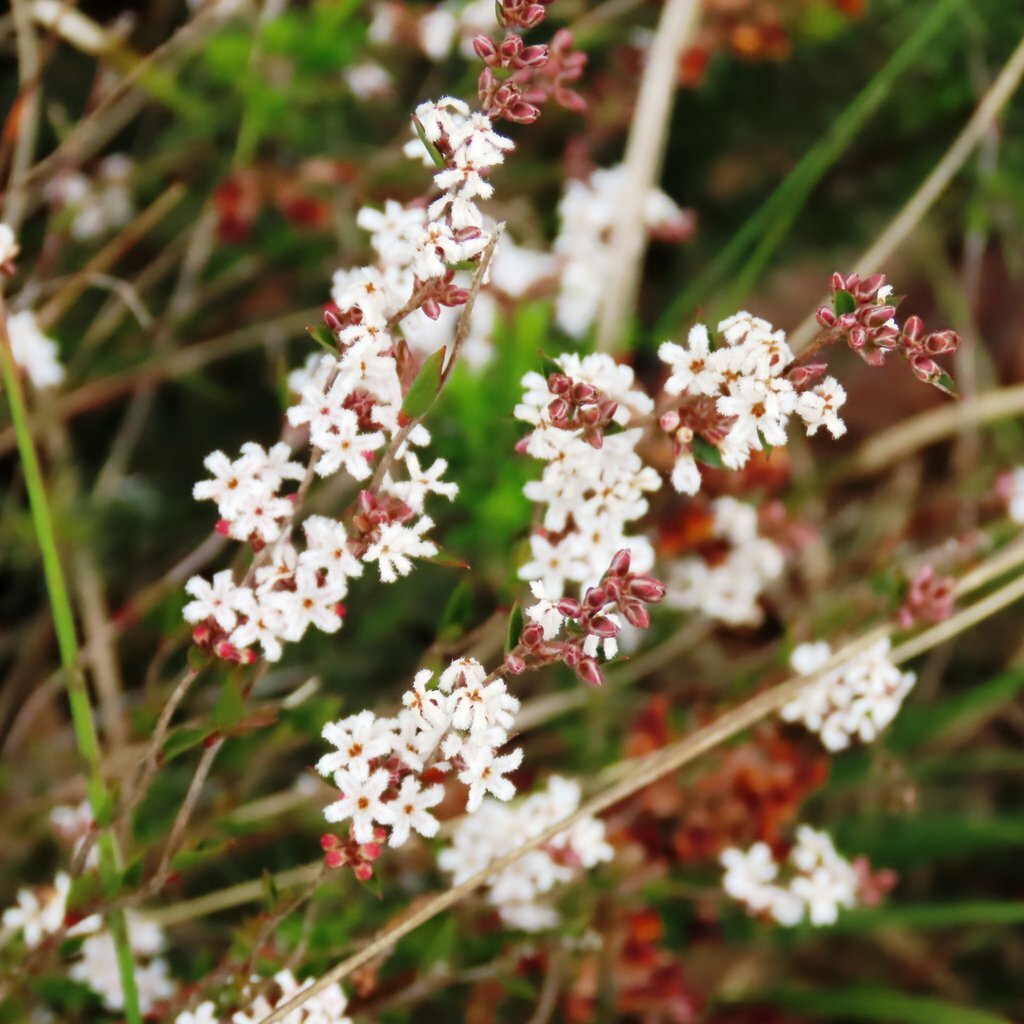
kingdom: Plantae
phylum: Tracheophyta
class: Magnoliopsida
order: Ericales
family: Ericaceae
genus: Leucopogon
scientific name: Leucopogon virgatus
